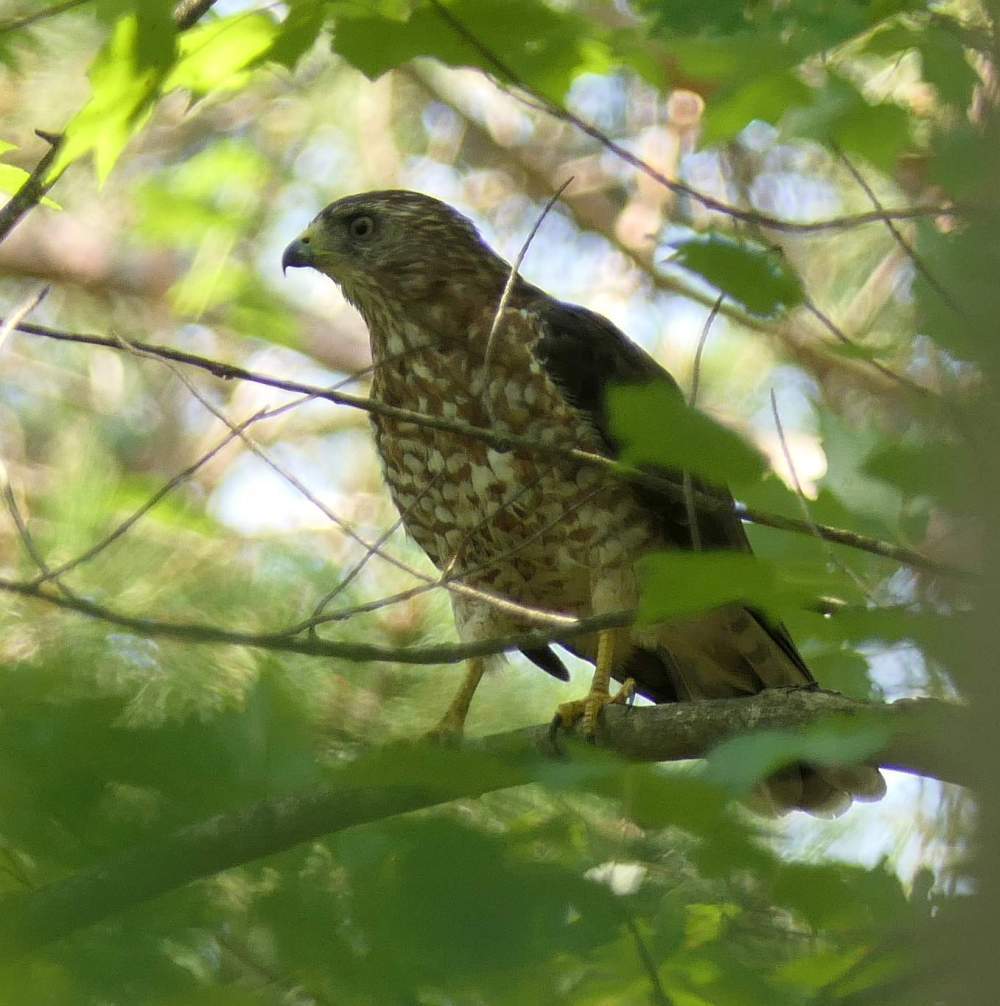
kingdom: Animalia
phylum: Chordata
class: Aves
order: Accipitriformes
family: Accipitridae
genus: Buteo
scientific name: Buteo platypterus
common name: Broad-winged hawk
